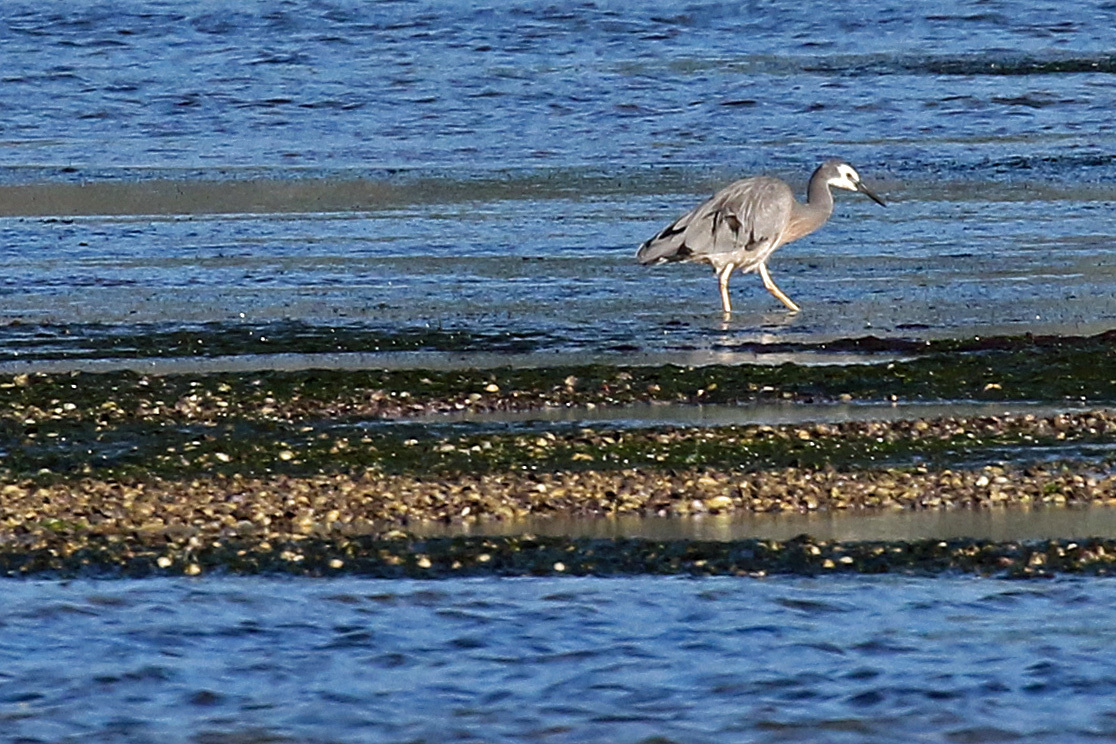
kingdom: Animalia
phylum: Chordata
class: Aves
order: Pelecaniformes
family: Ardeidae
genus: Egretta
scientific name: Egretta novaehollandiae
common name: White-faced heron
